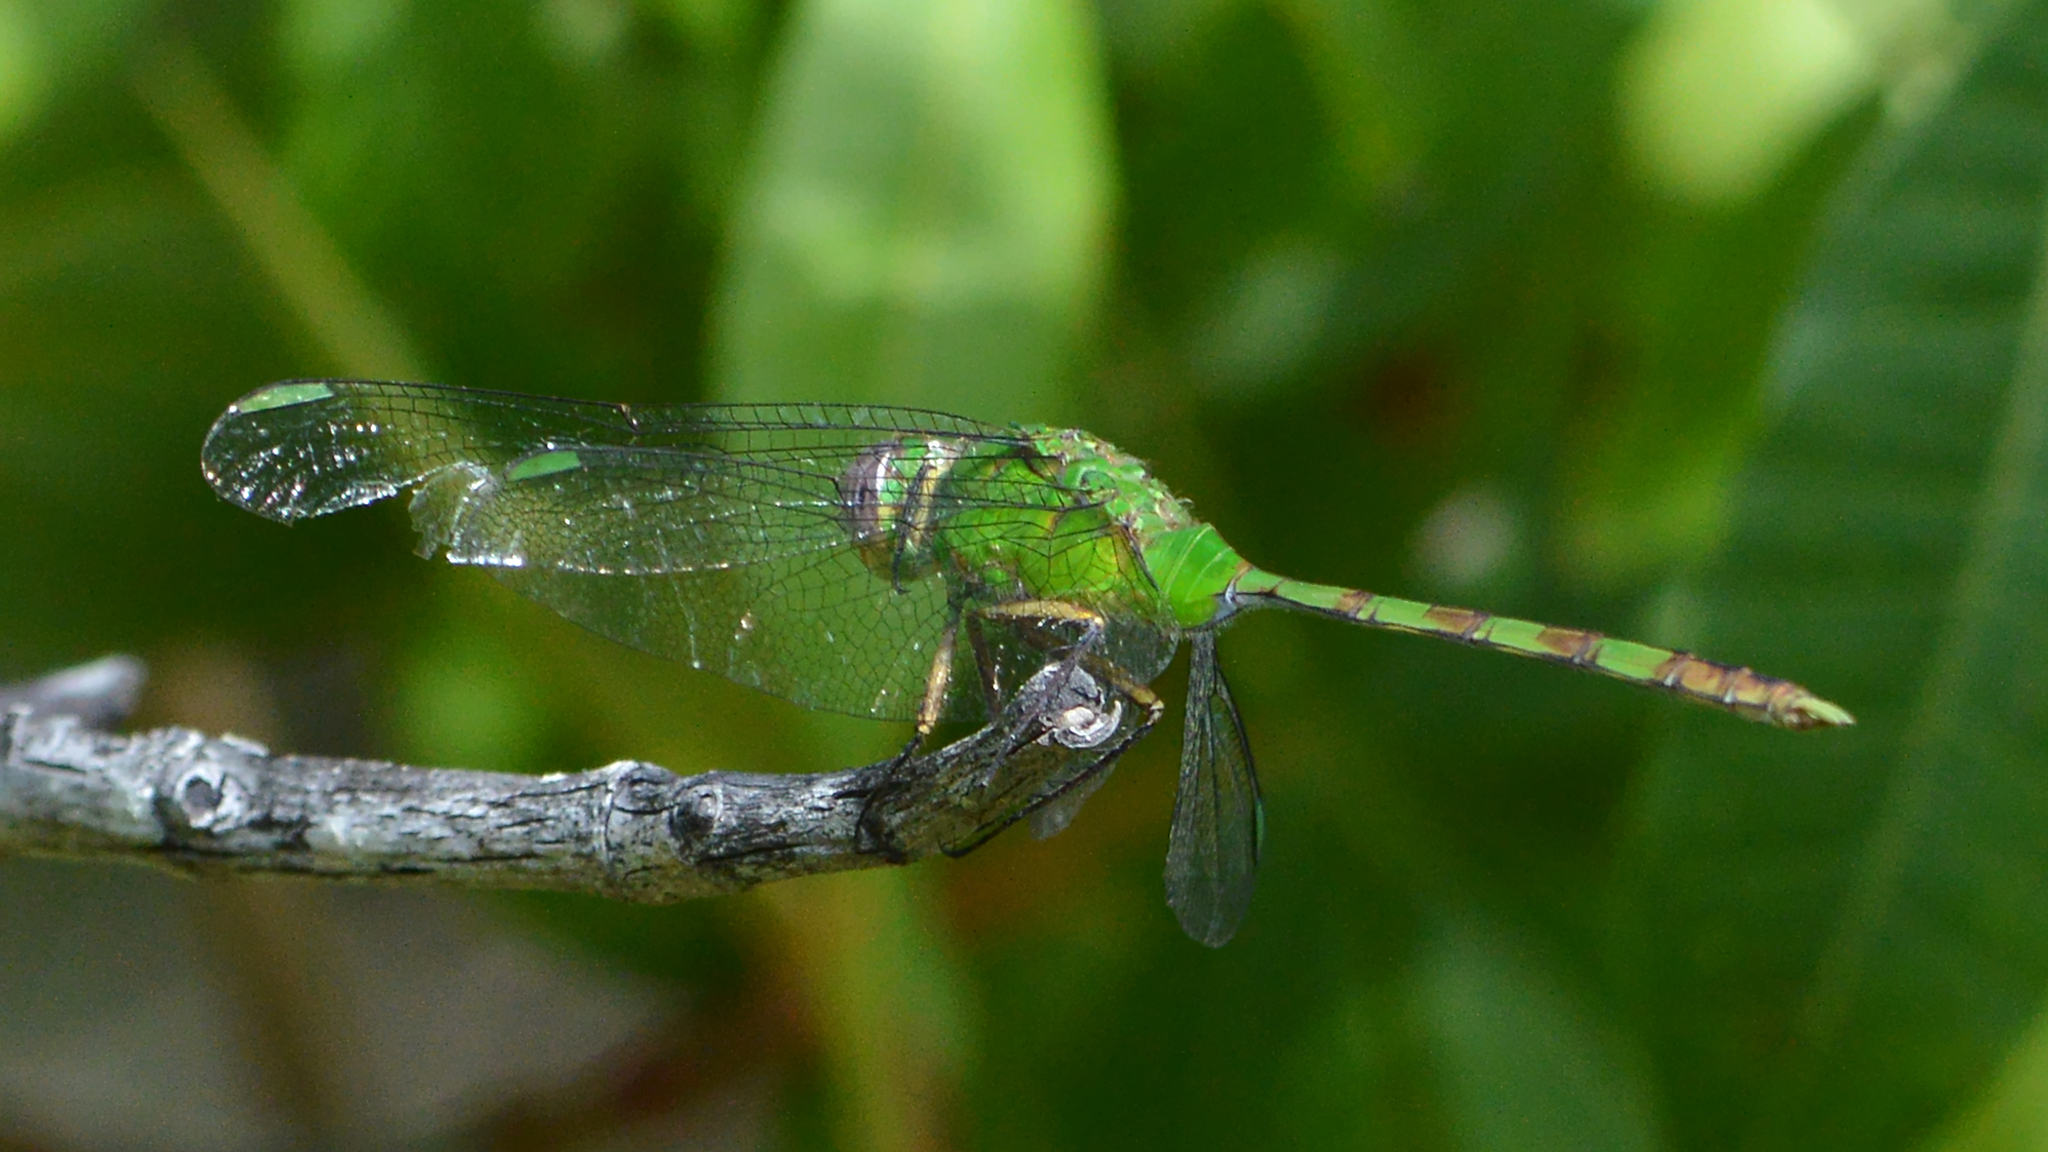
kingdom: Animalia
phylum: Arthropoda
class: Insecta
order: Odonata
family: Libellulidae
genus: Erythemis
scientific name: Erythemis vesiculosa
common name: Great pondhawk
